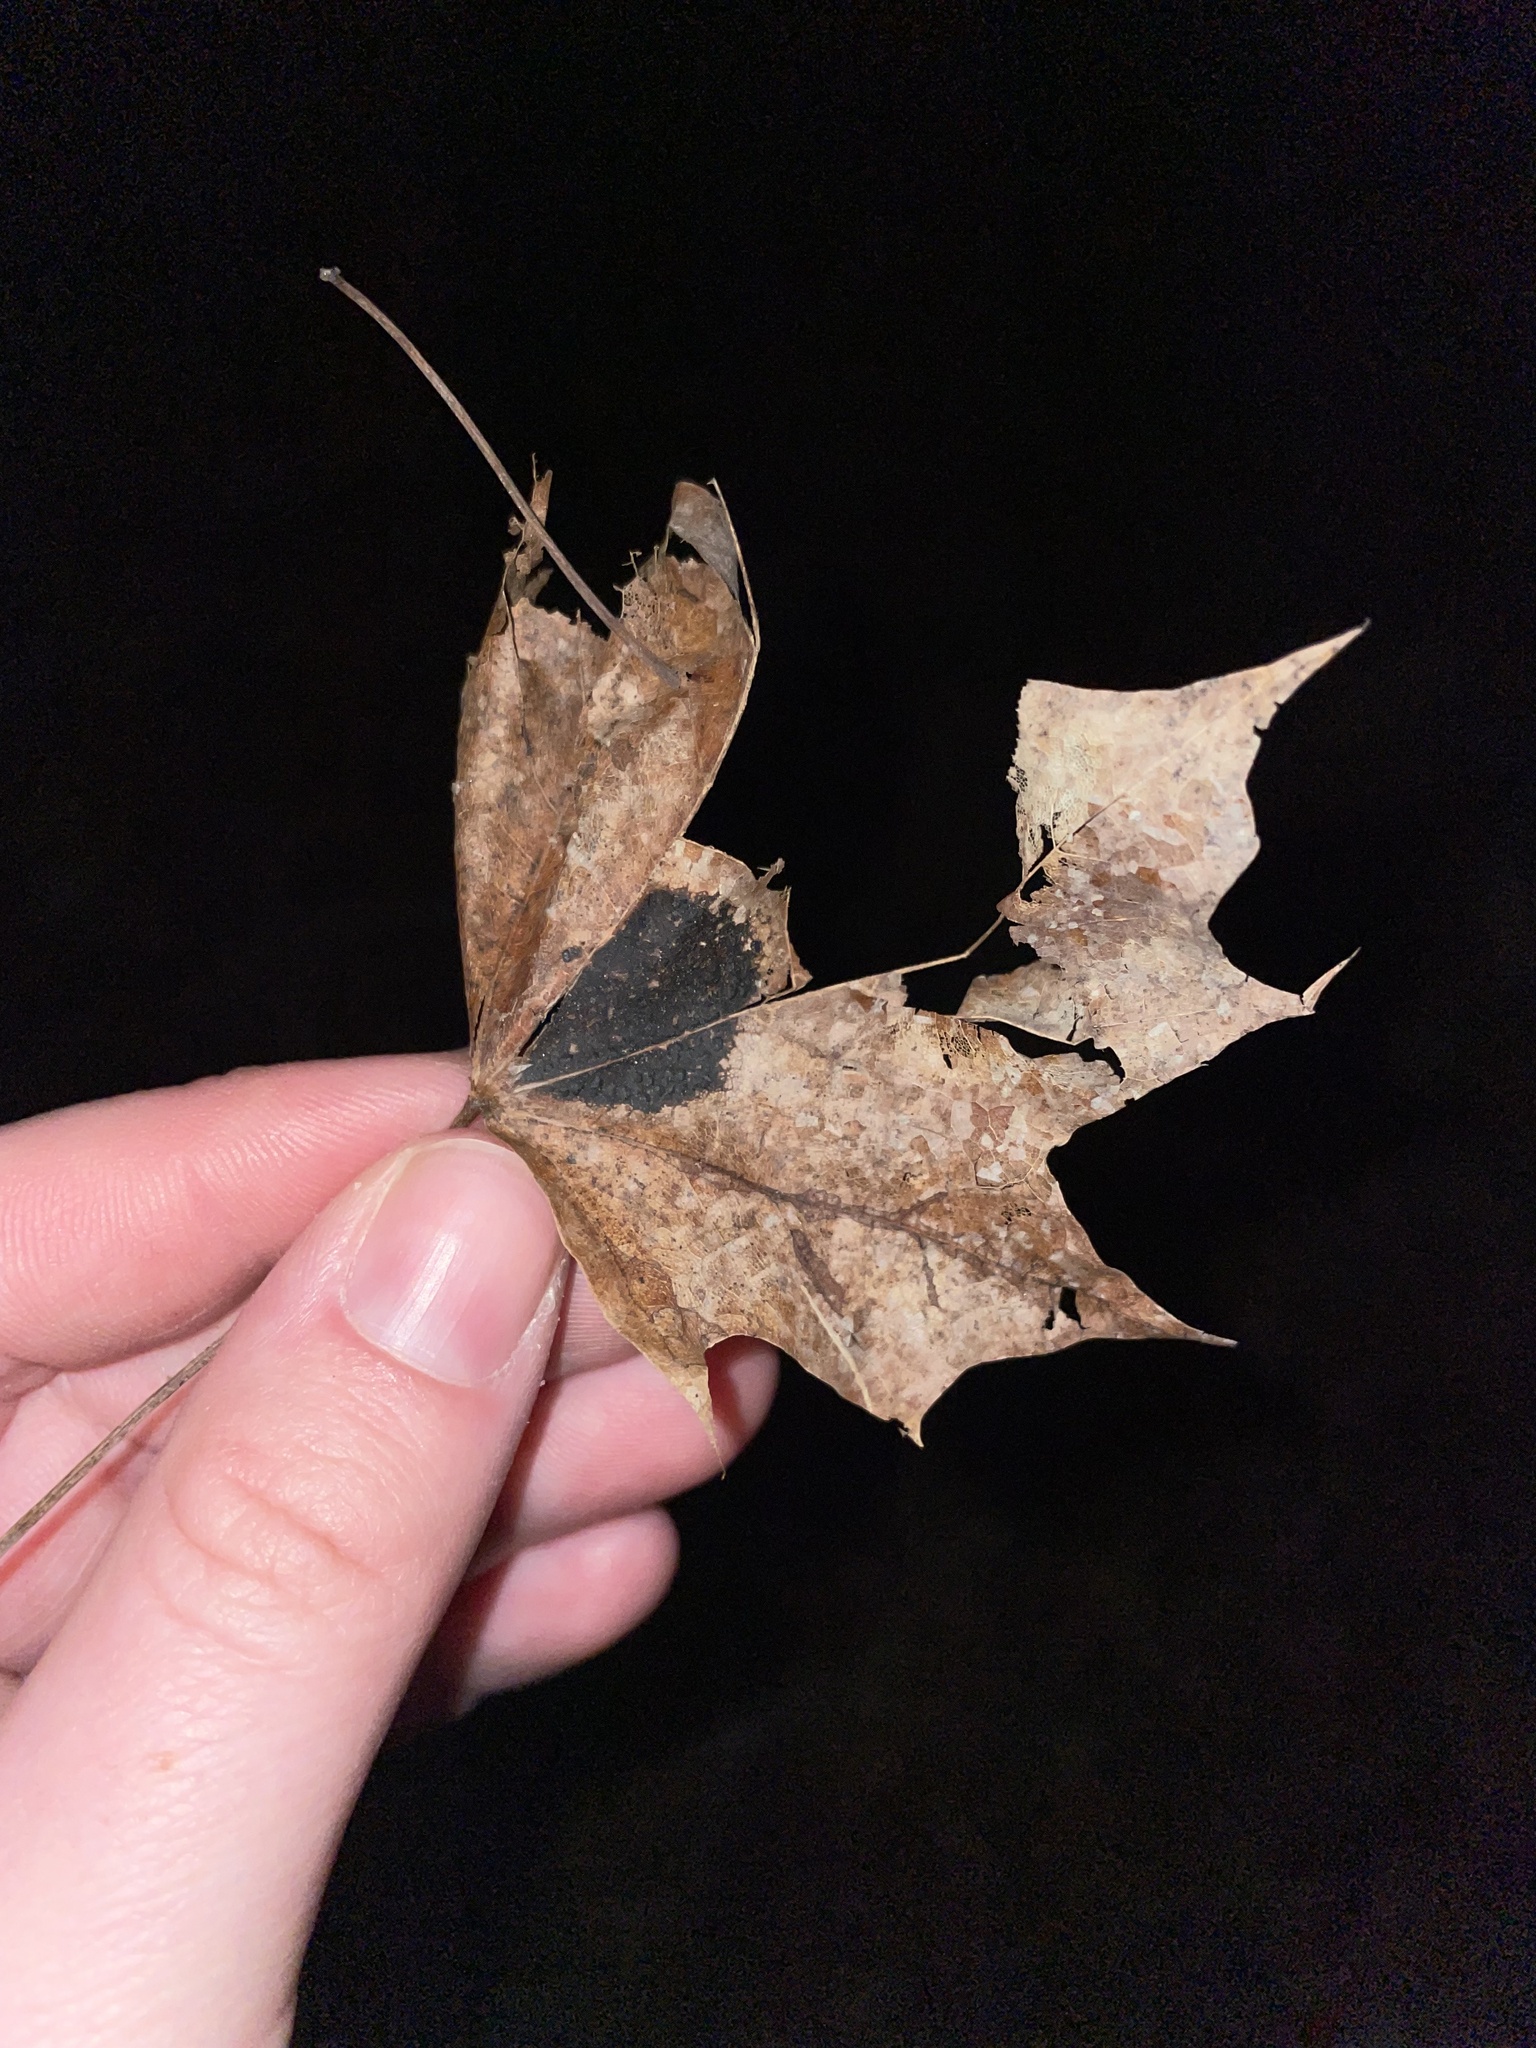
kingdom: Fungi
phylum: Ascomycota
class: Leotiomycetes
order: Rhytismatales
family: Rhytismataceae
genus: Rhytisma
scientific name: Rhytisma acerinum
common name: European tar spot
